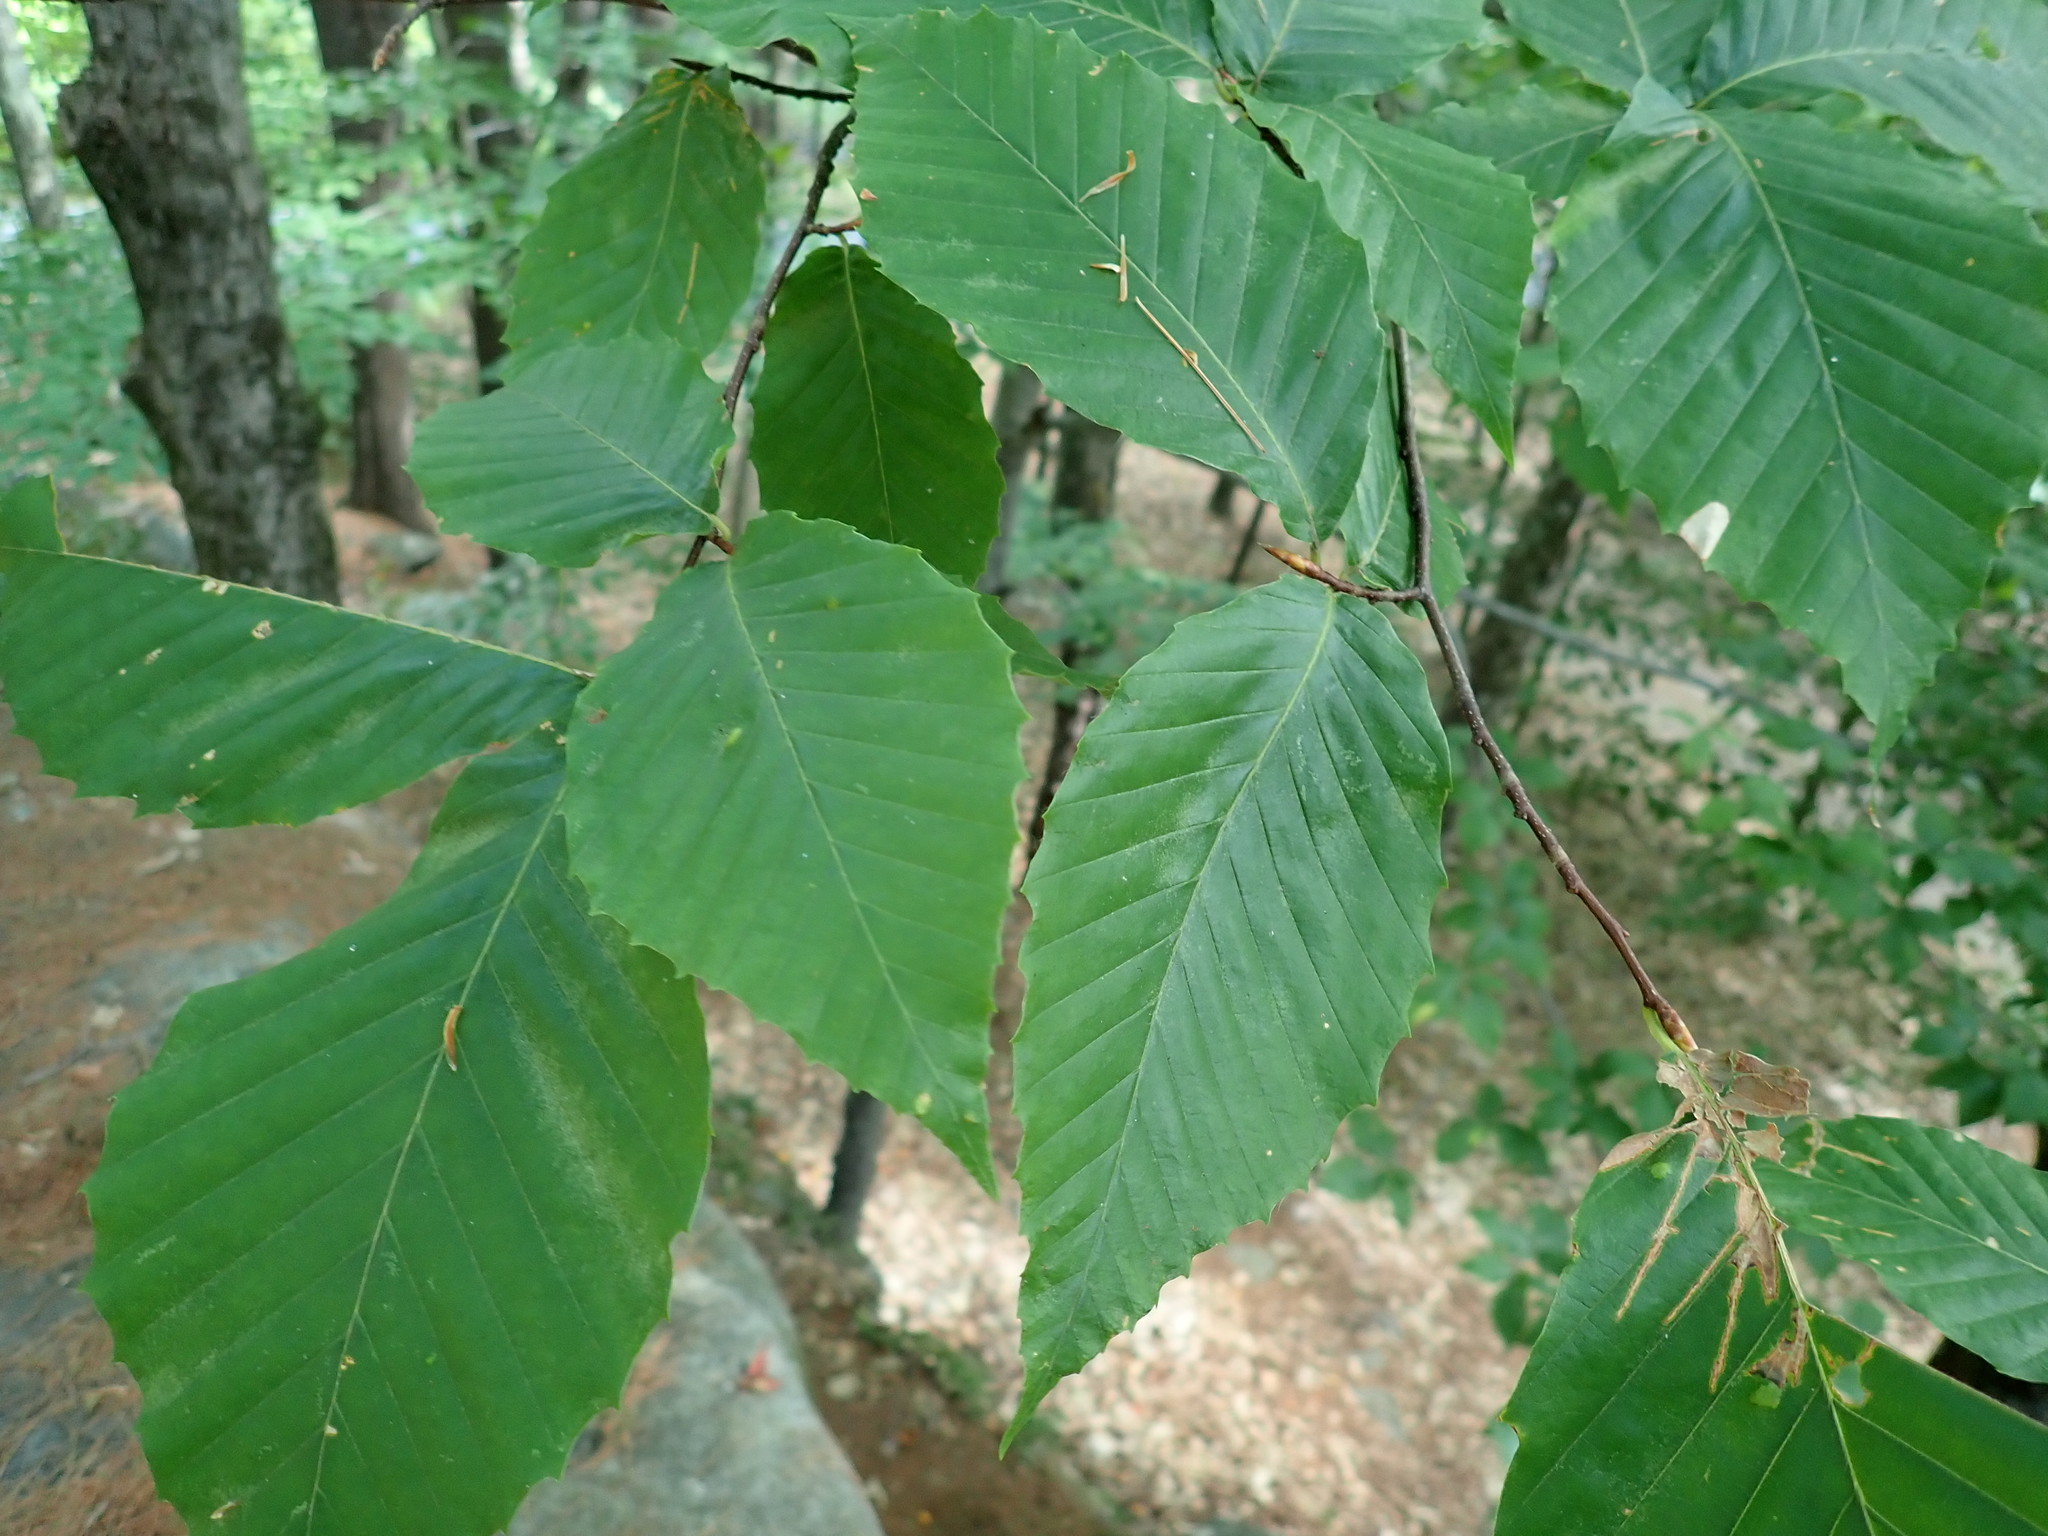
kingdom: Plantae
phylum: Tracheophyta
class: Magnoliopsida
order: Fagales
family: Fagaceae
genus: Fagus
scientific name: Fagus grandifolia
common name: American beech
